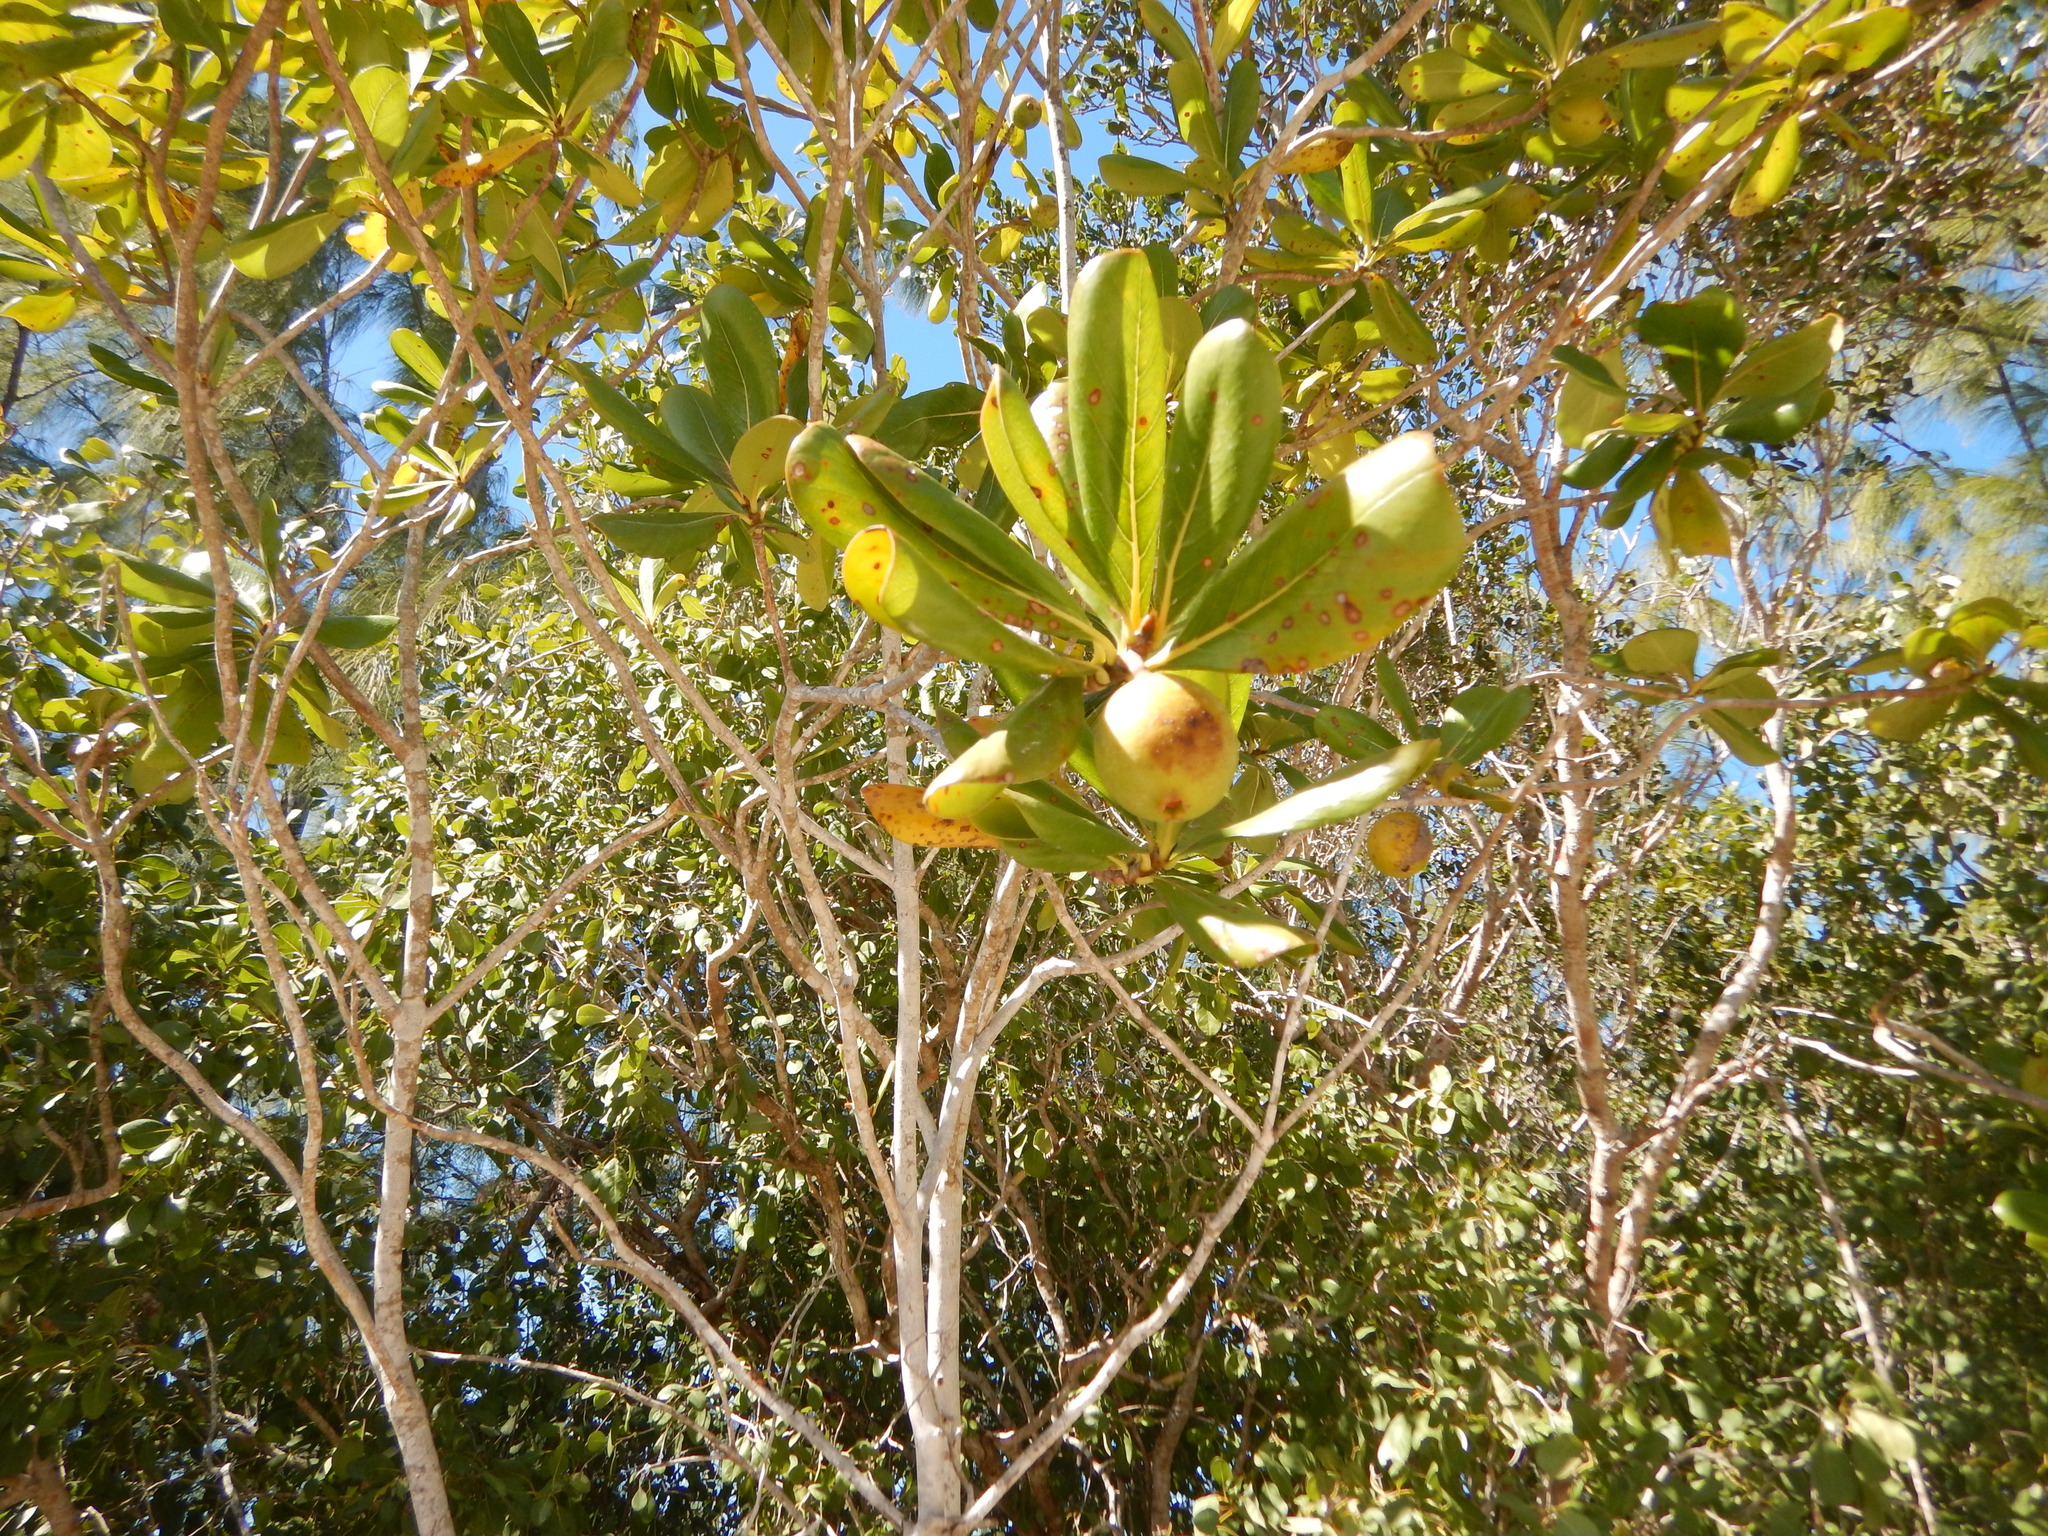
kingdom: Plantae
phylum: Tracheophyta
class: Magnoliopsida
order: Gentianales
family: Rubiaceae
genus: Casasia
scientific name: Casasia clusiifolia
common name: Seven-year apple
